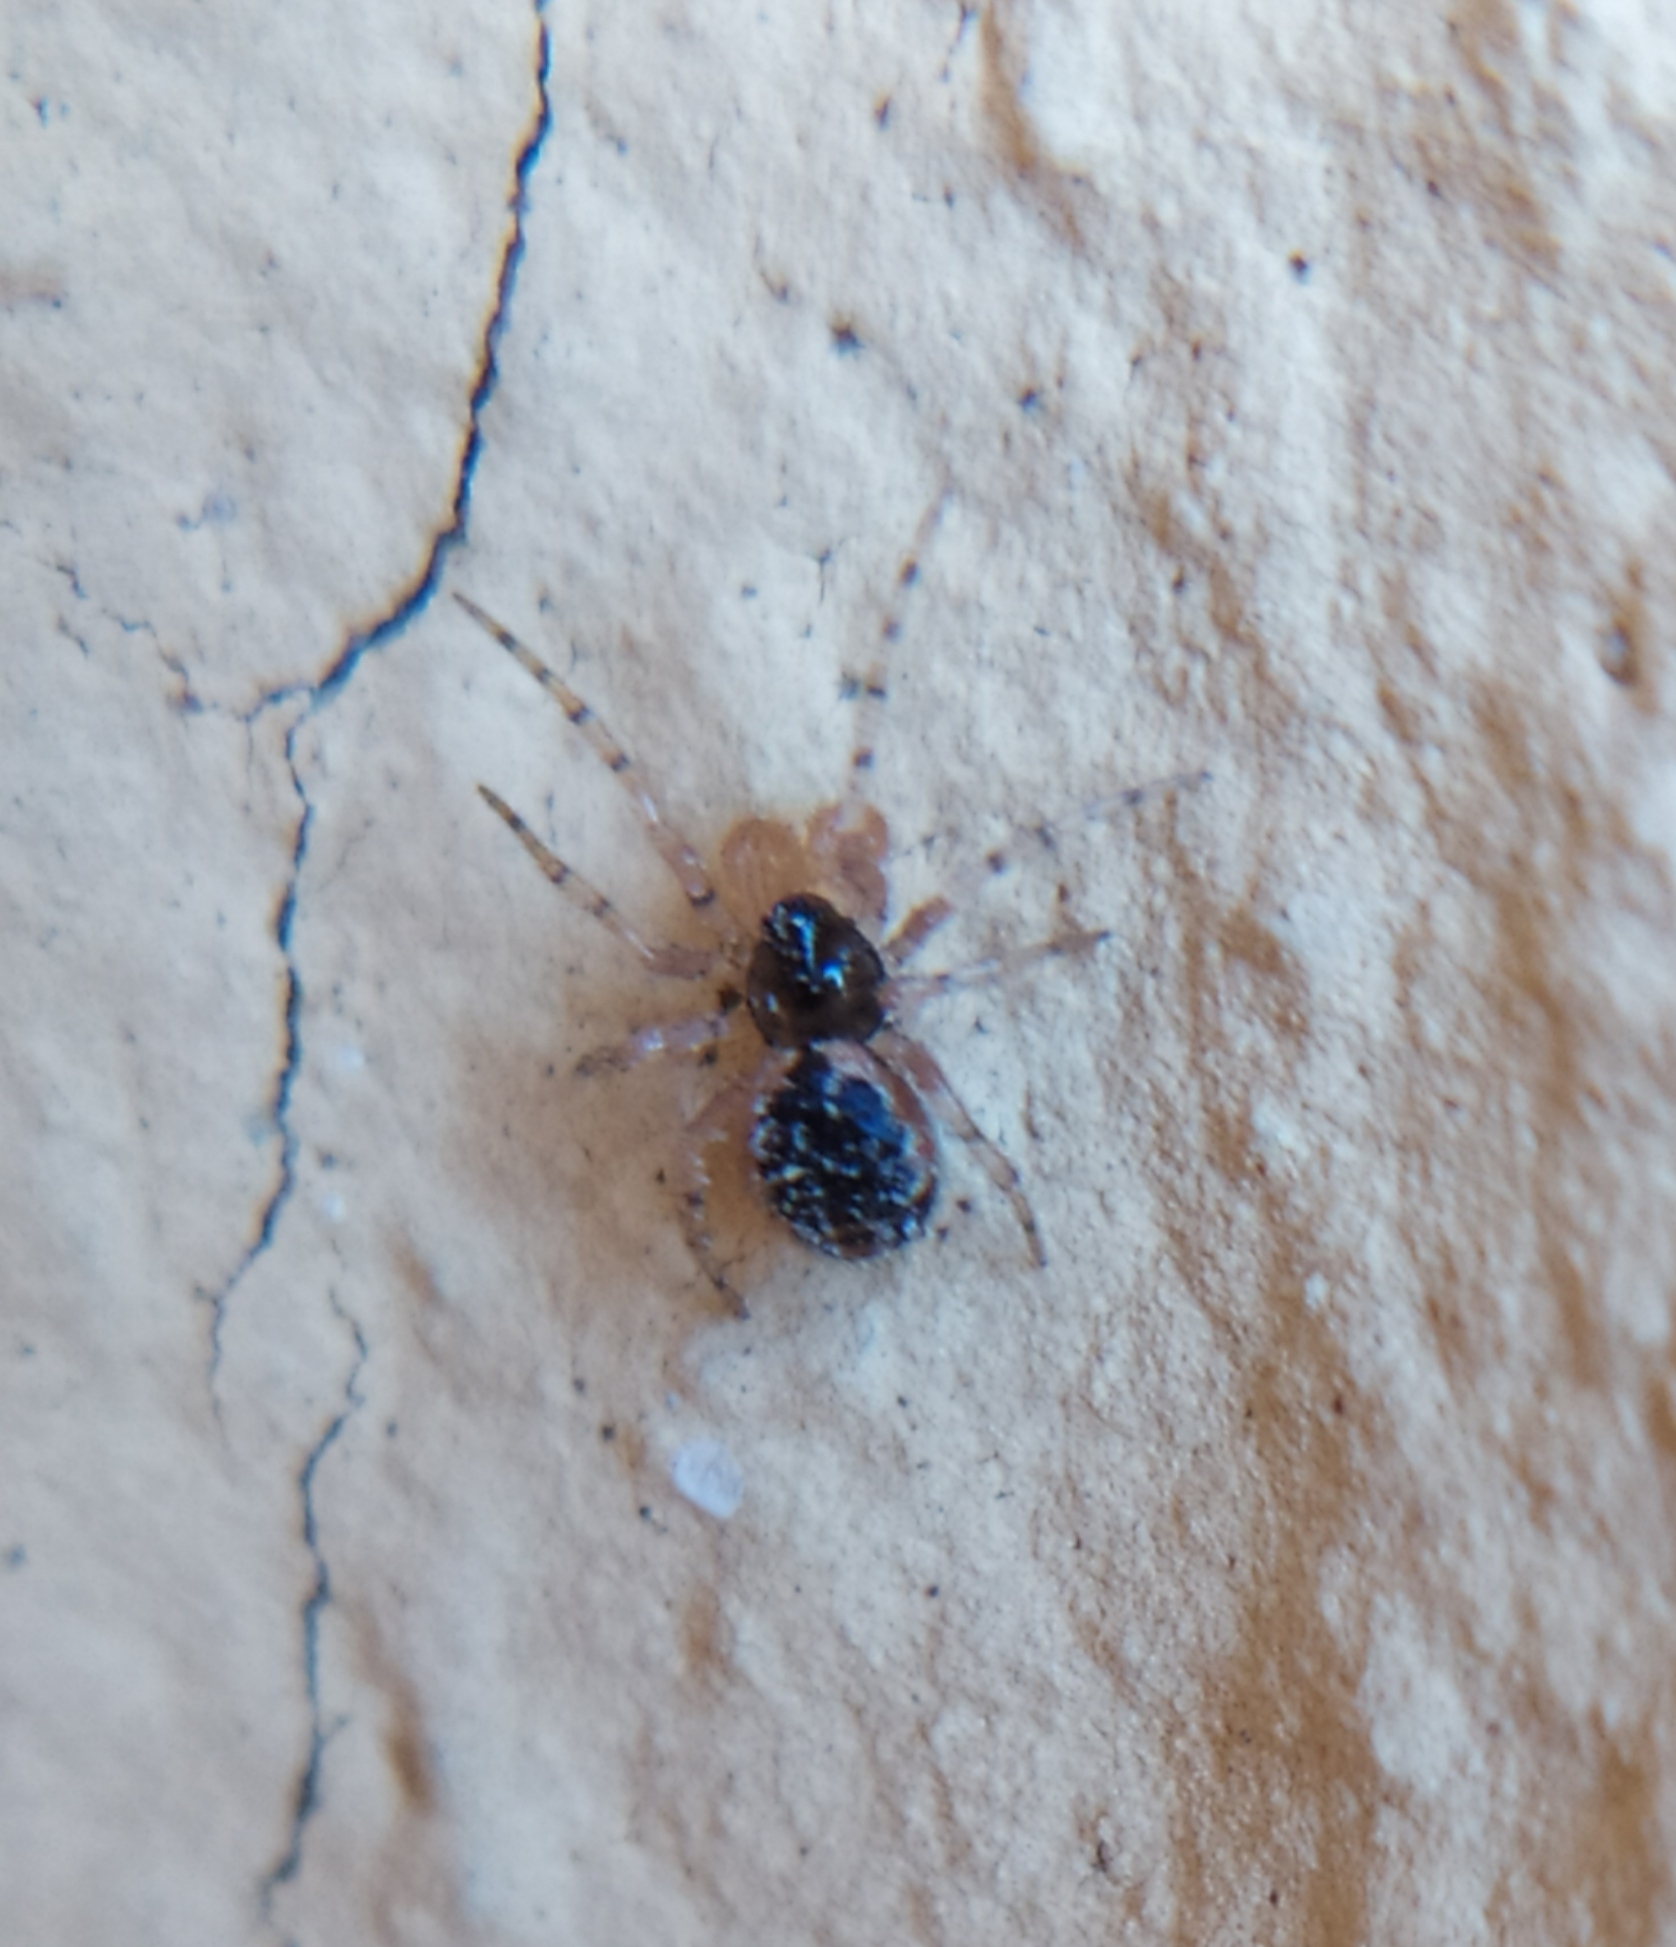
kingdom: Animalia
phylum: Arthropoda
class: Arachnida
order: Araneae
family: Theridiidae
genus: Sardinidion
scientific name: Sardinidion blackwalli
